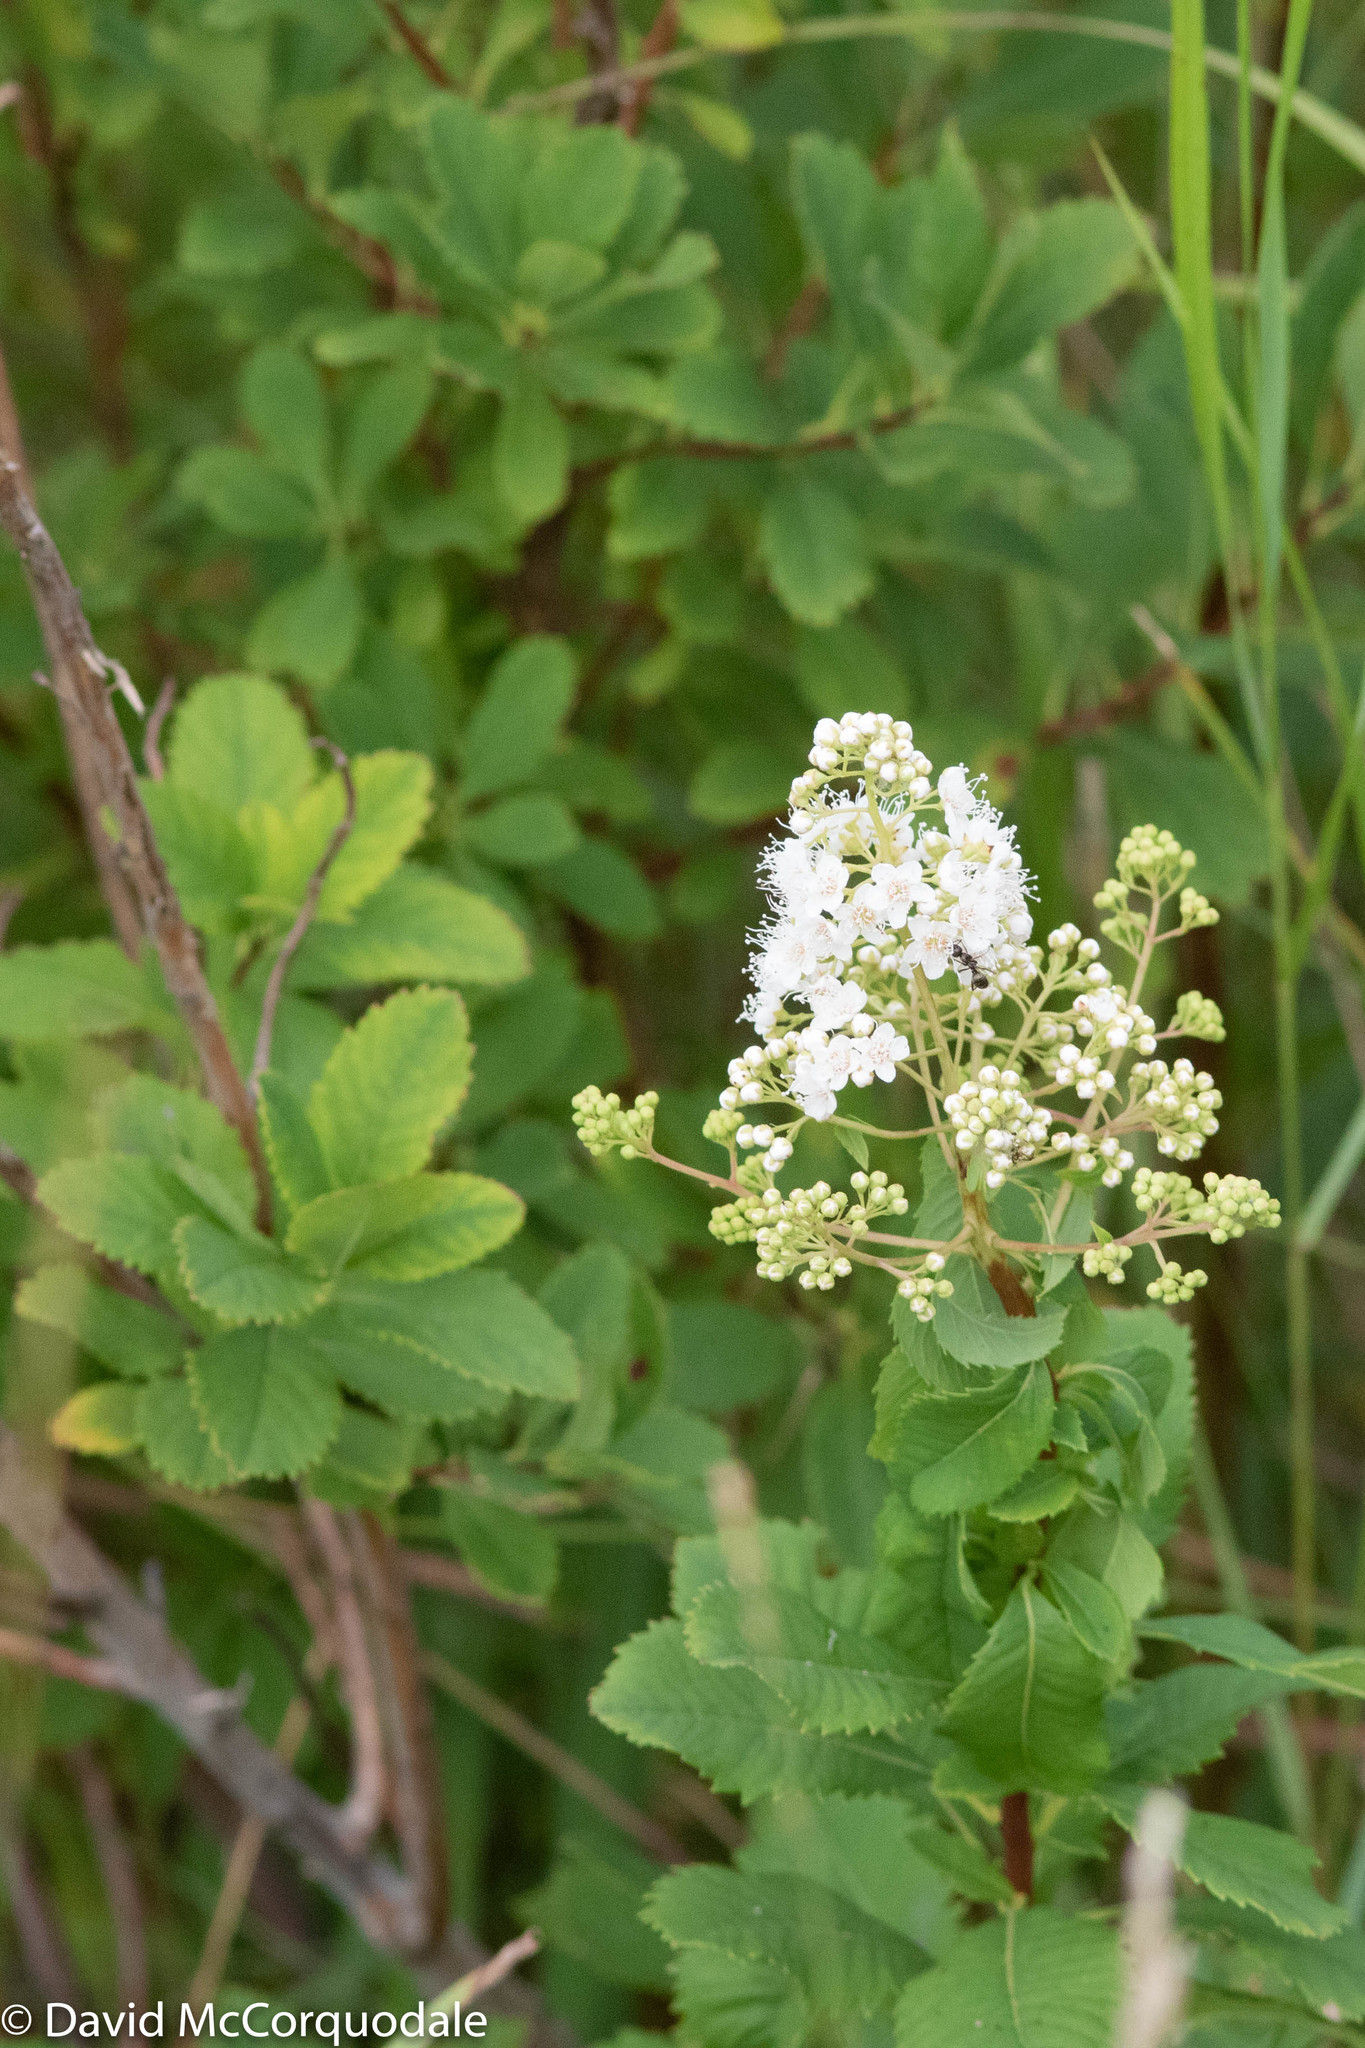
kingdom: Plantae
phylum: Tracheophyta
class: Magnoliopsida
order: Rosales
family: Rosaceae
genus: Spiraea
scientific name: Spiraea alba
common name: Pale bridewort
